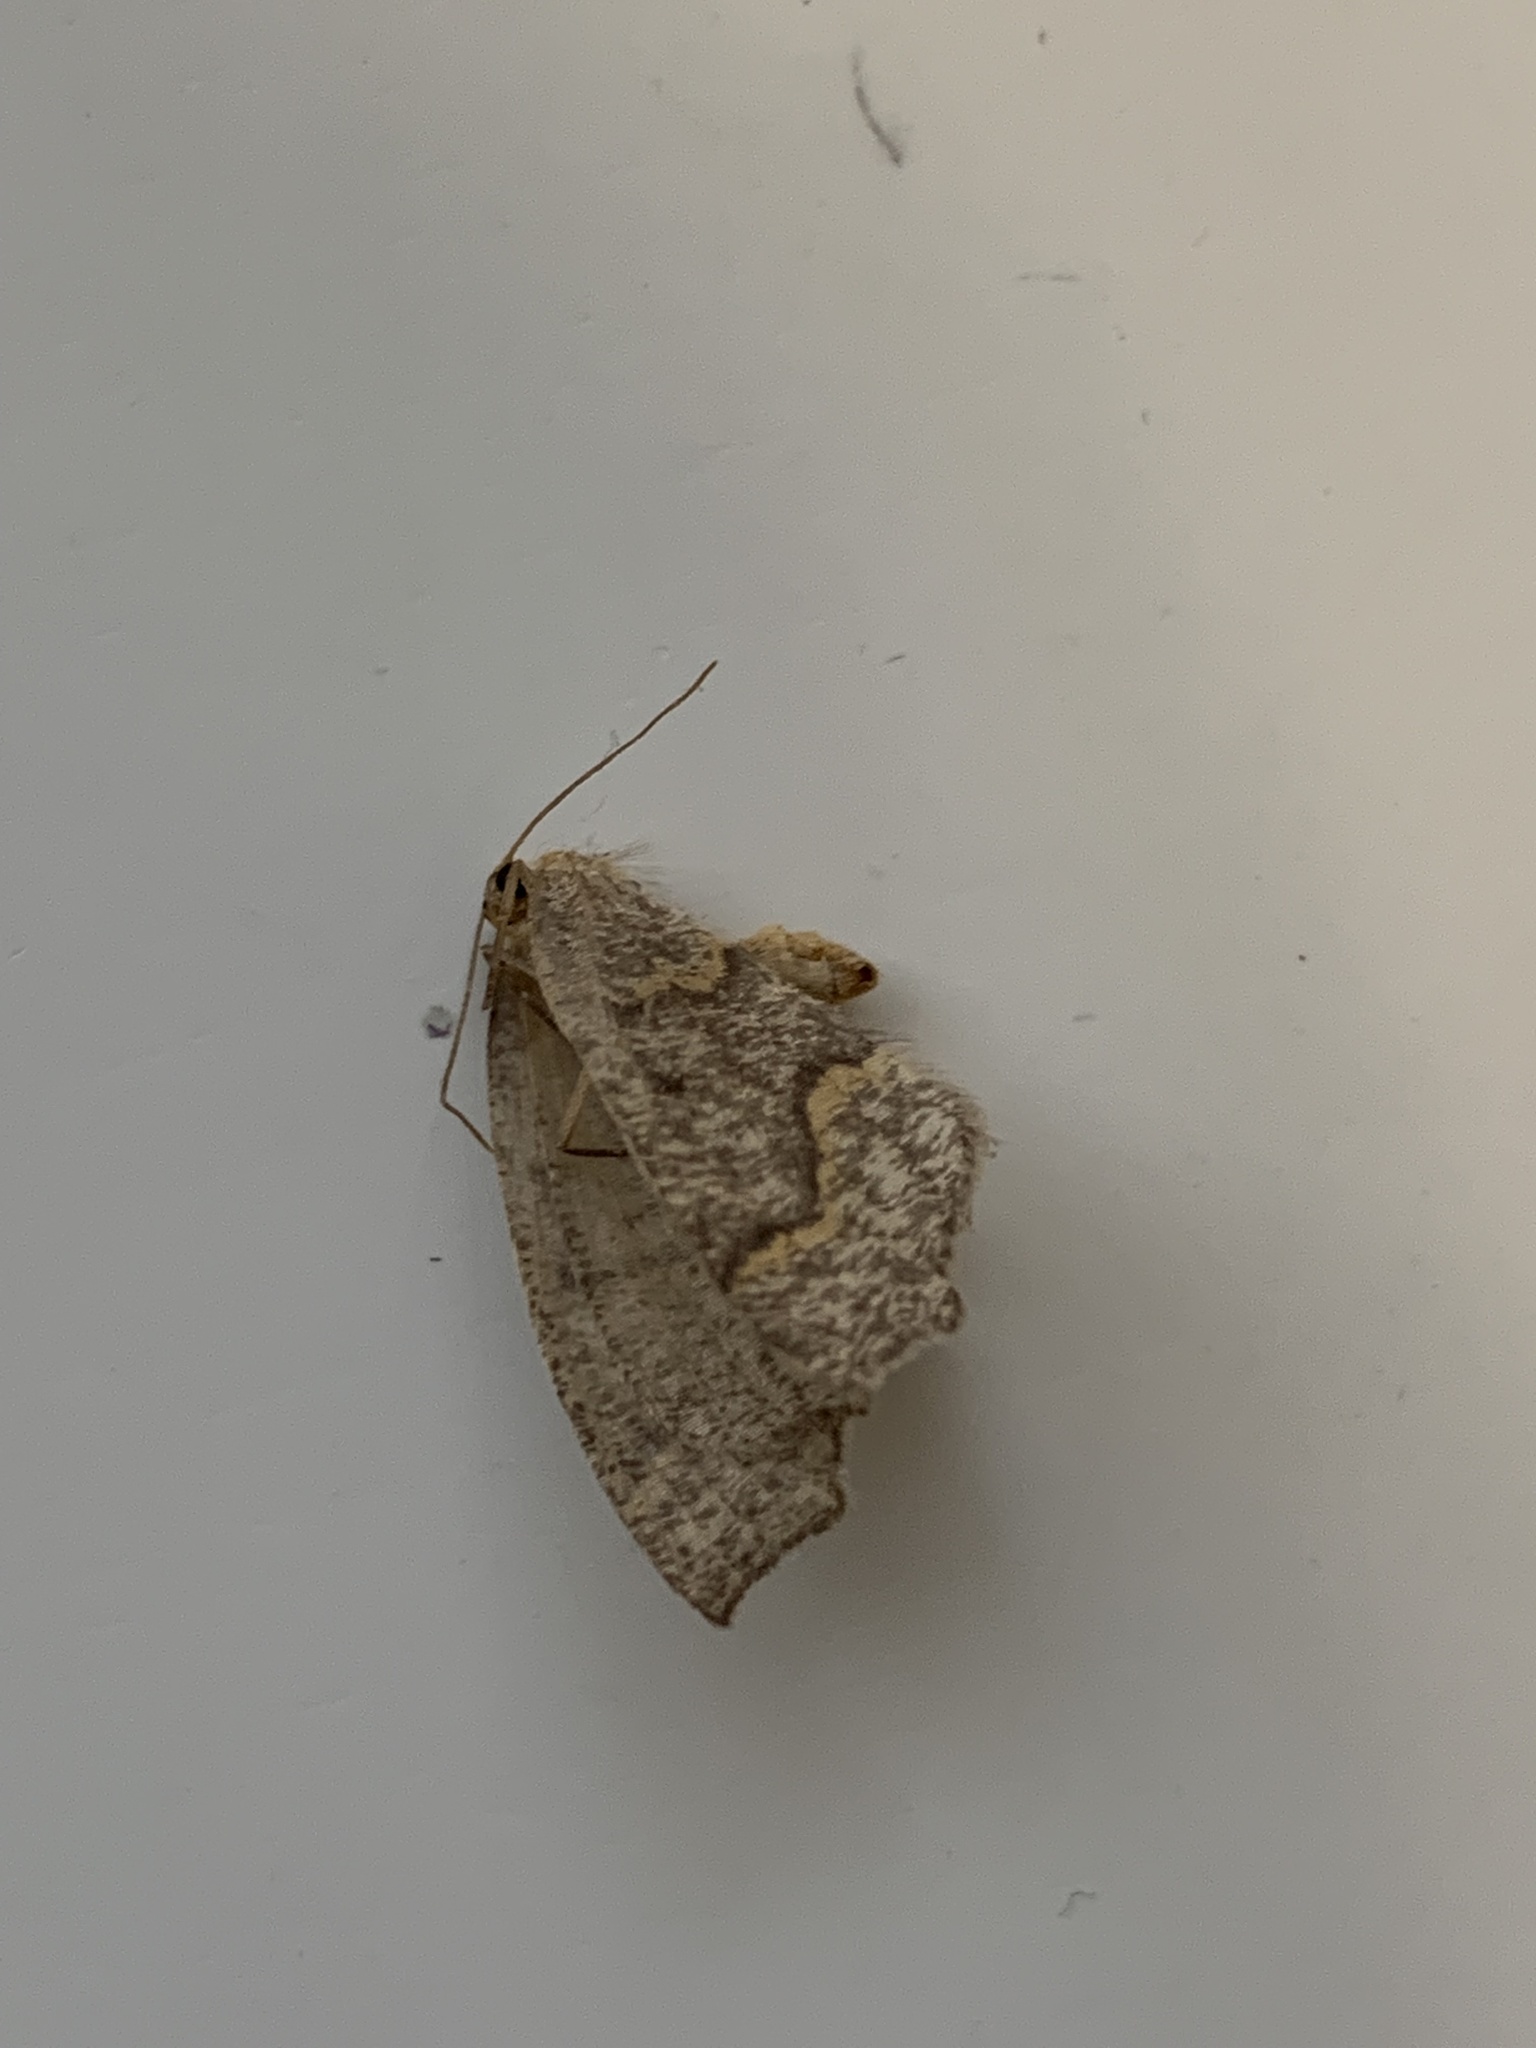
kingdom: Animalia
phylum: Arthropoda
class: Insecta
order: Lepidoptera
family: Geometridae
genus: Lambdina
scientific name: Lambdina fiscellaria
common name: Hemlock looper
